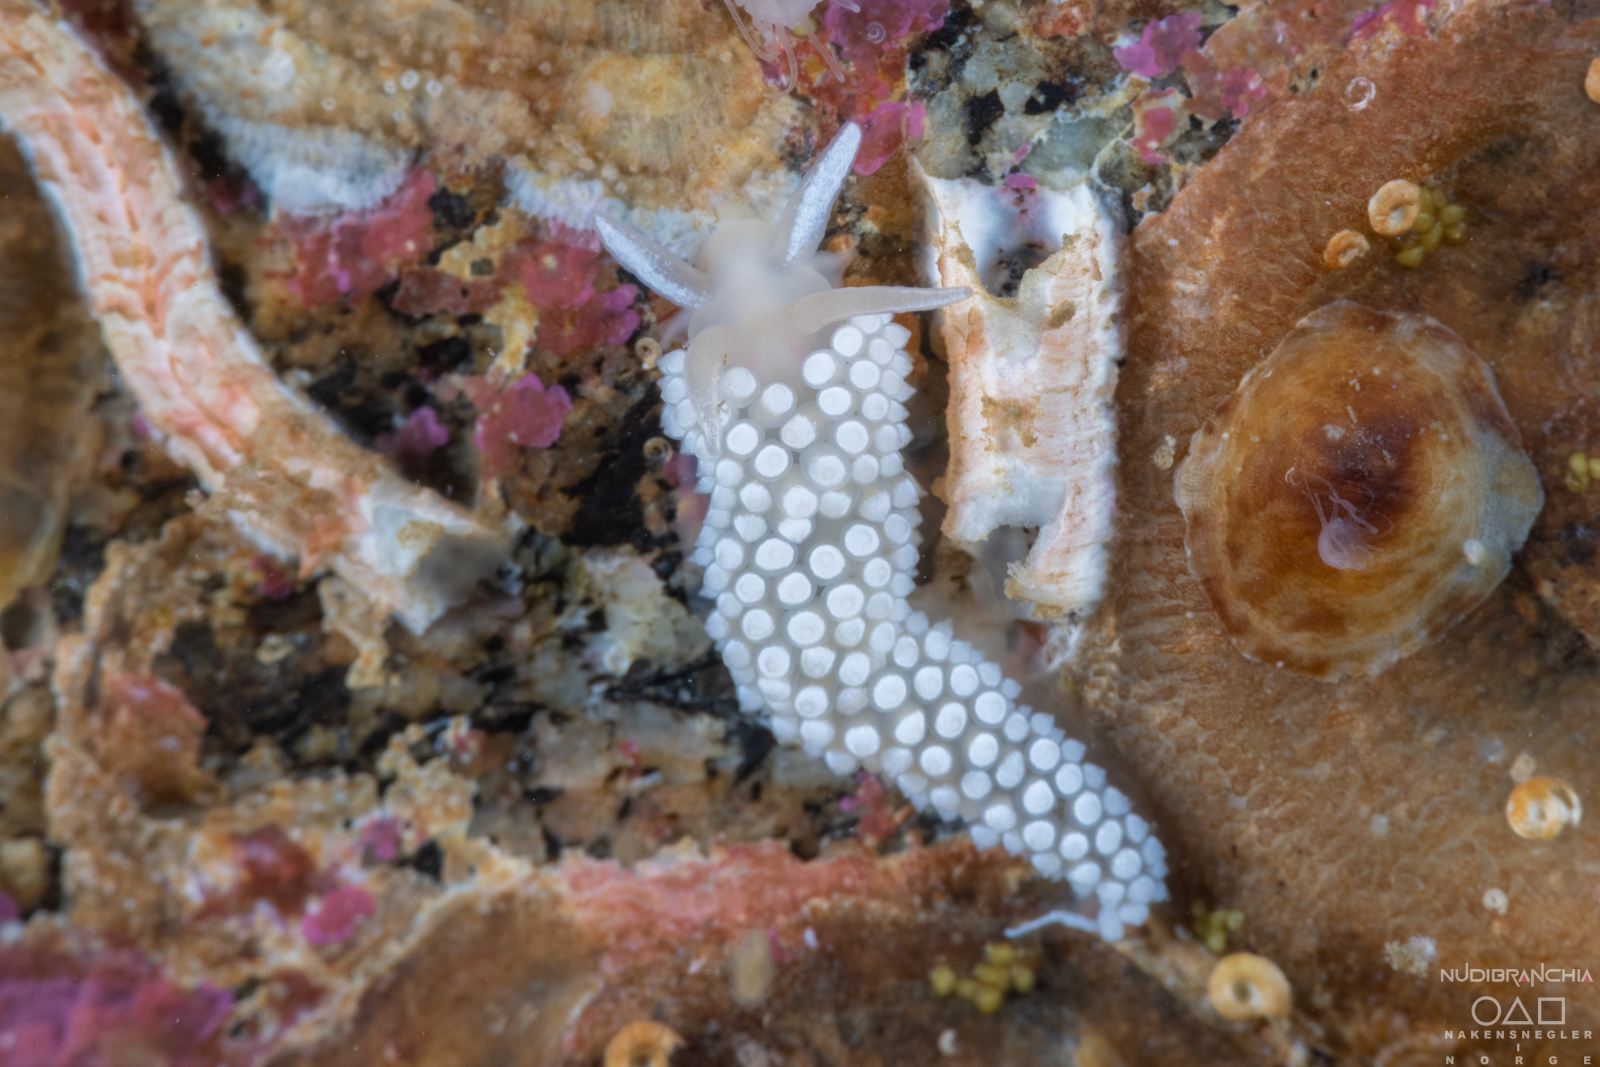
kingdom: Animalia
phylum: Mollusca
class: Gastropoda
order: Nudibranchia
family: Coryphellidae
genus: Coryphella
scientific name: Coryphella verrucosa
